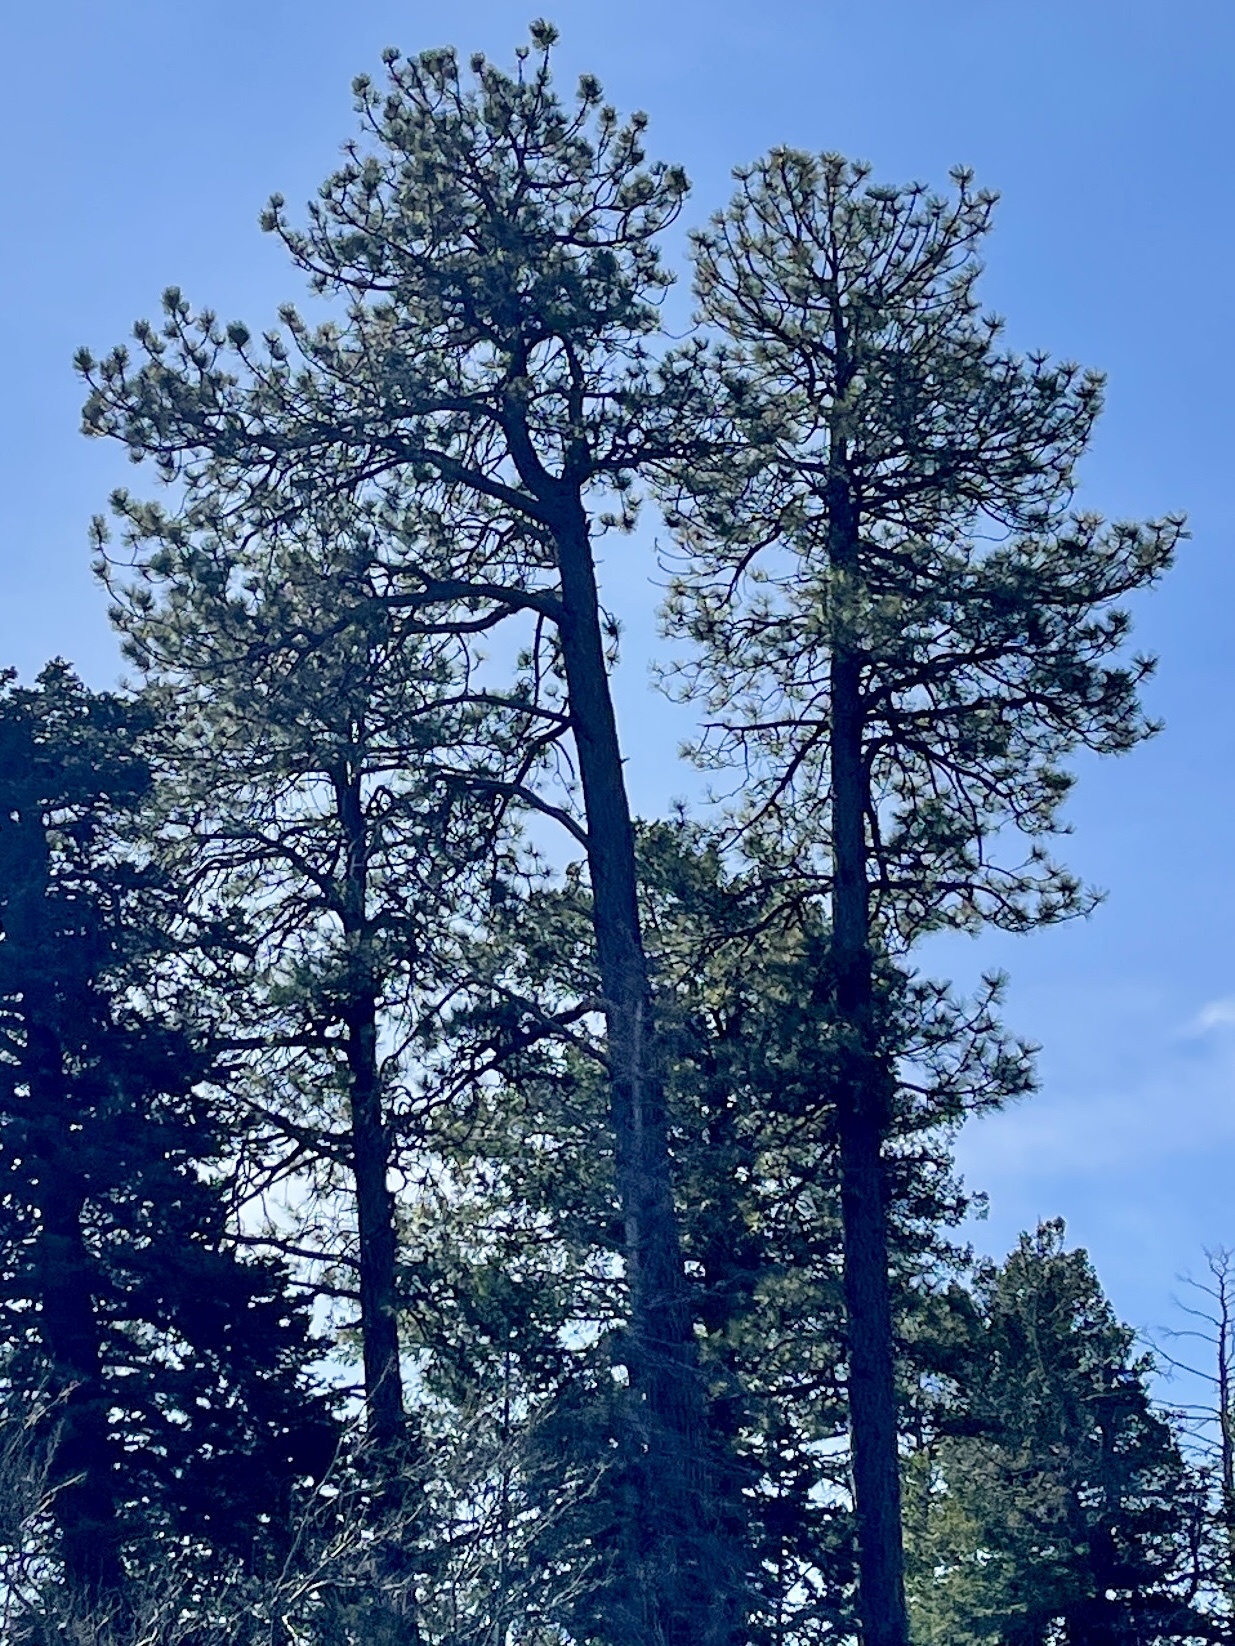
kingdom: Plantae
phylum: Tracheophyta
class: Pinopsida
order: Pinales
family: Pinaceae
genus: Pinus
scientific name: Pinus ponderosa
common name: Western yellow-pine
